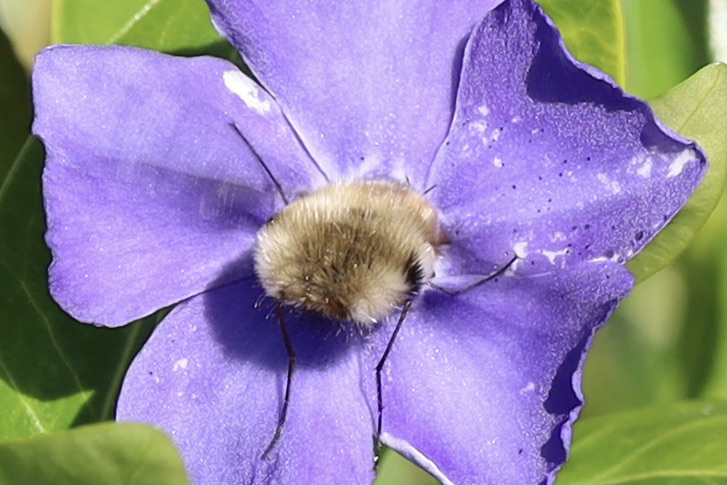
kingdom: Animalia
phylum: Arthropoda
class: Insecta
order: Diptera
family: Bombyliidae
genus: Bombylius
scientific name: Bombylius major
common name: Bee fly
